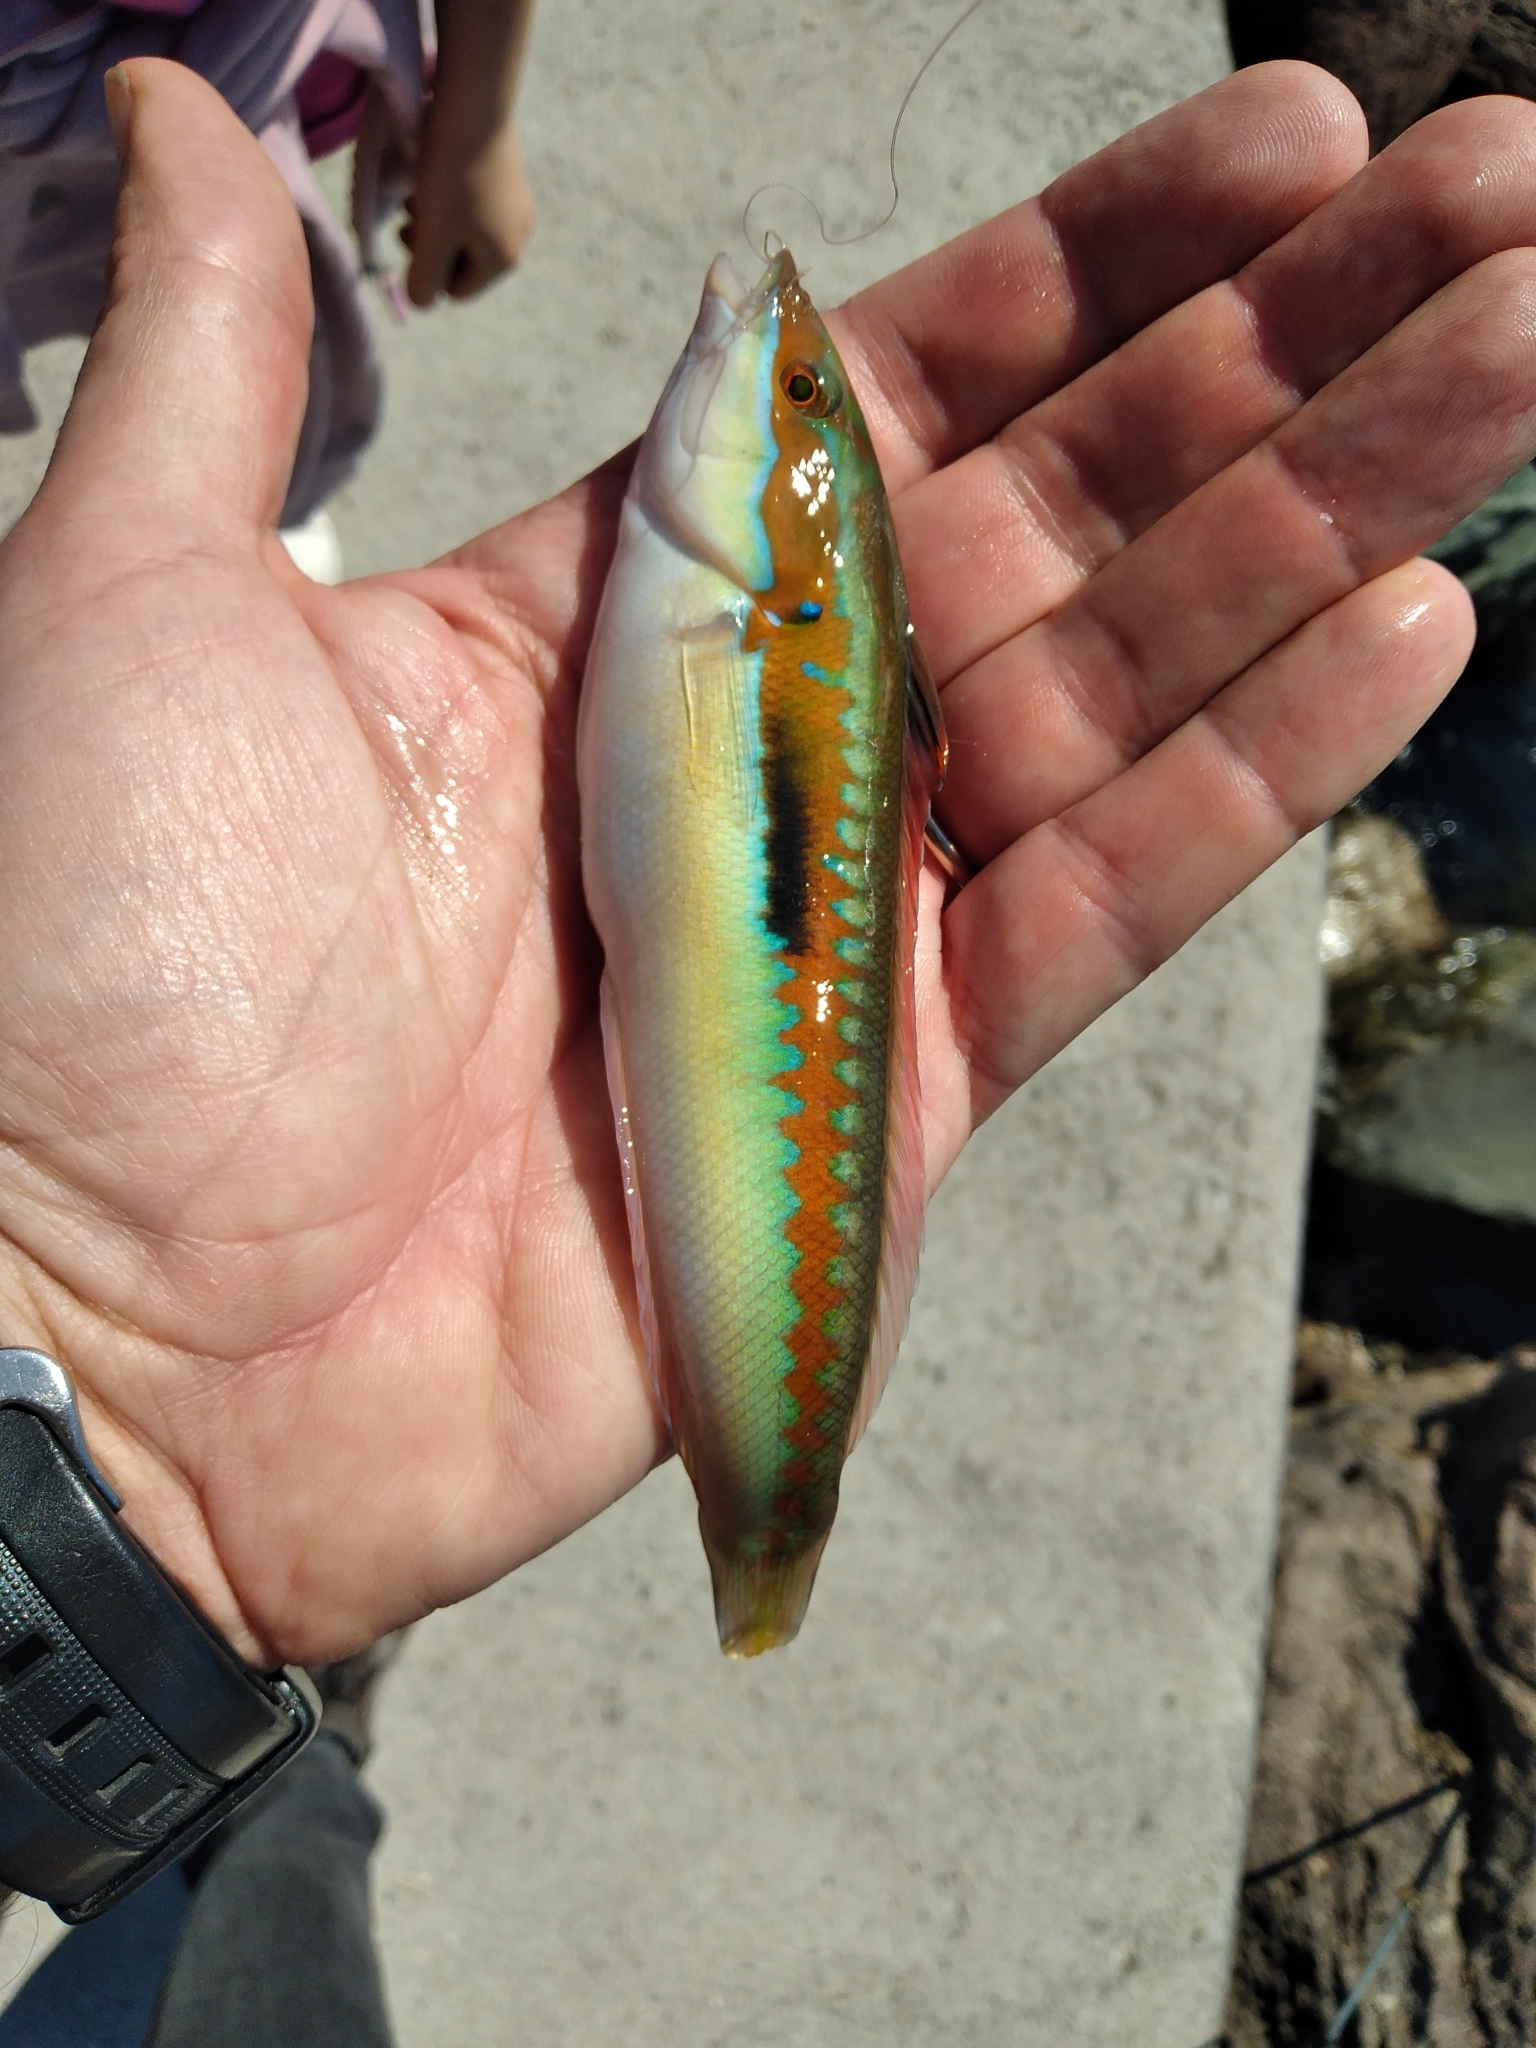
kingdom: Animalia
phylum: Chordata
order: Perciformes
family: Labridae
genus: Coris
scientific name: Coris julis
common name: Rainbow wrasse
